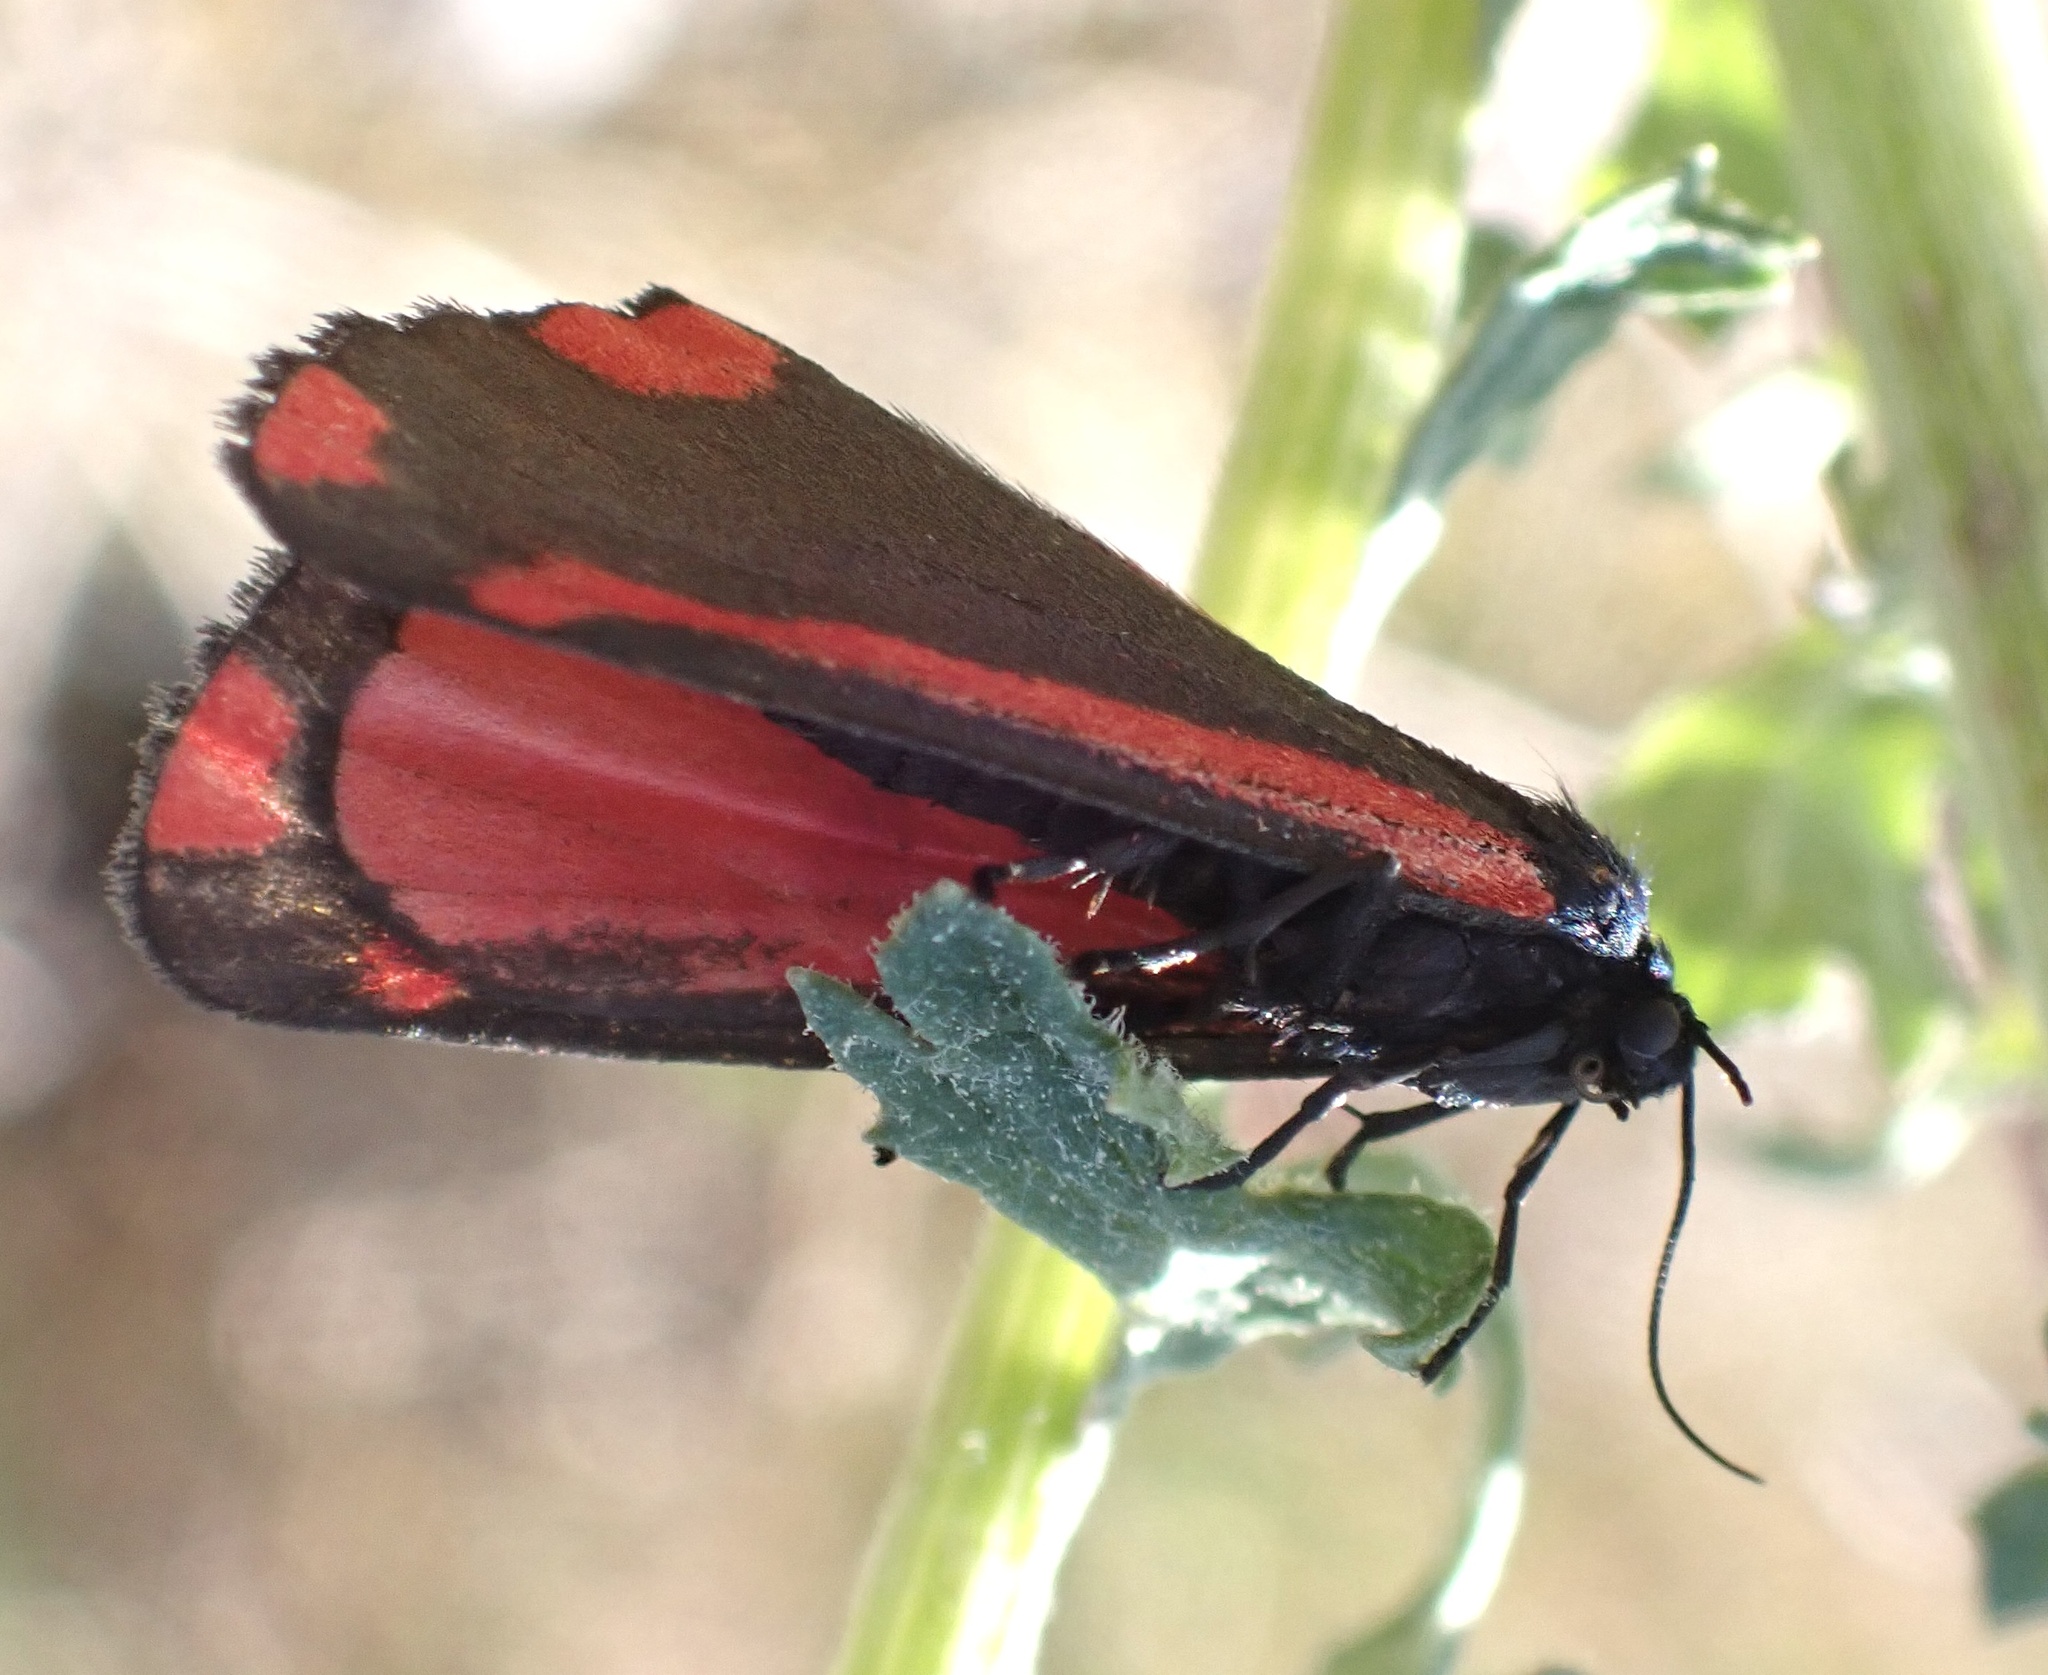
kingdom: Animalia
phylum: Arthropoda
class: Insecta
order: Lepidoptera
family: Erebidae
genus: Tyria
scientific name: Tyria jacobaeae
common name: Cinnabar
